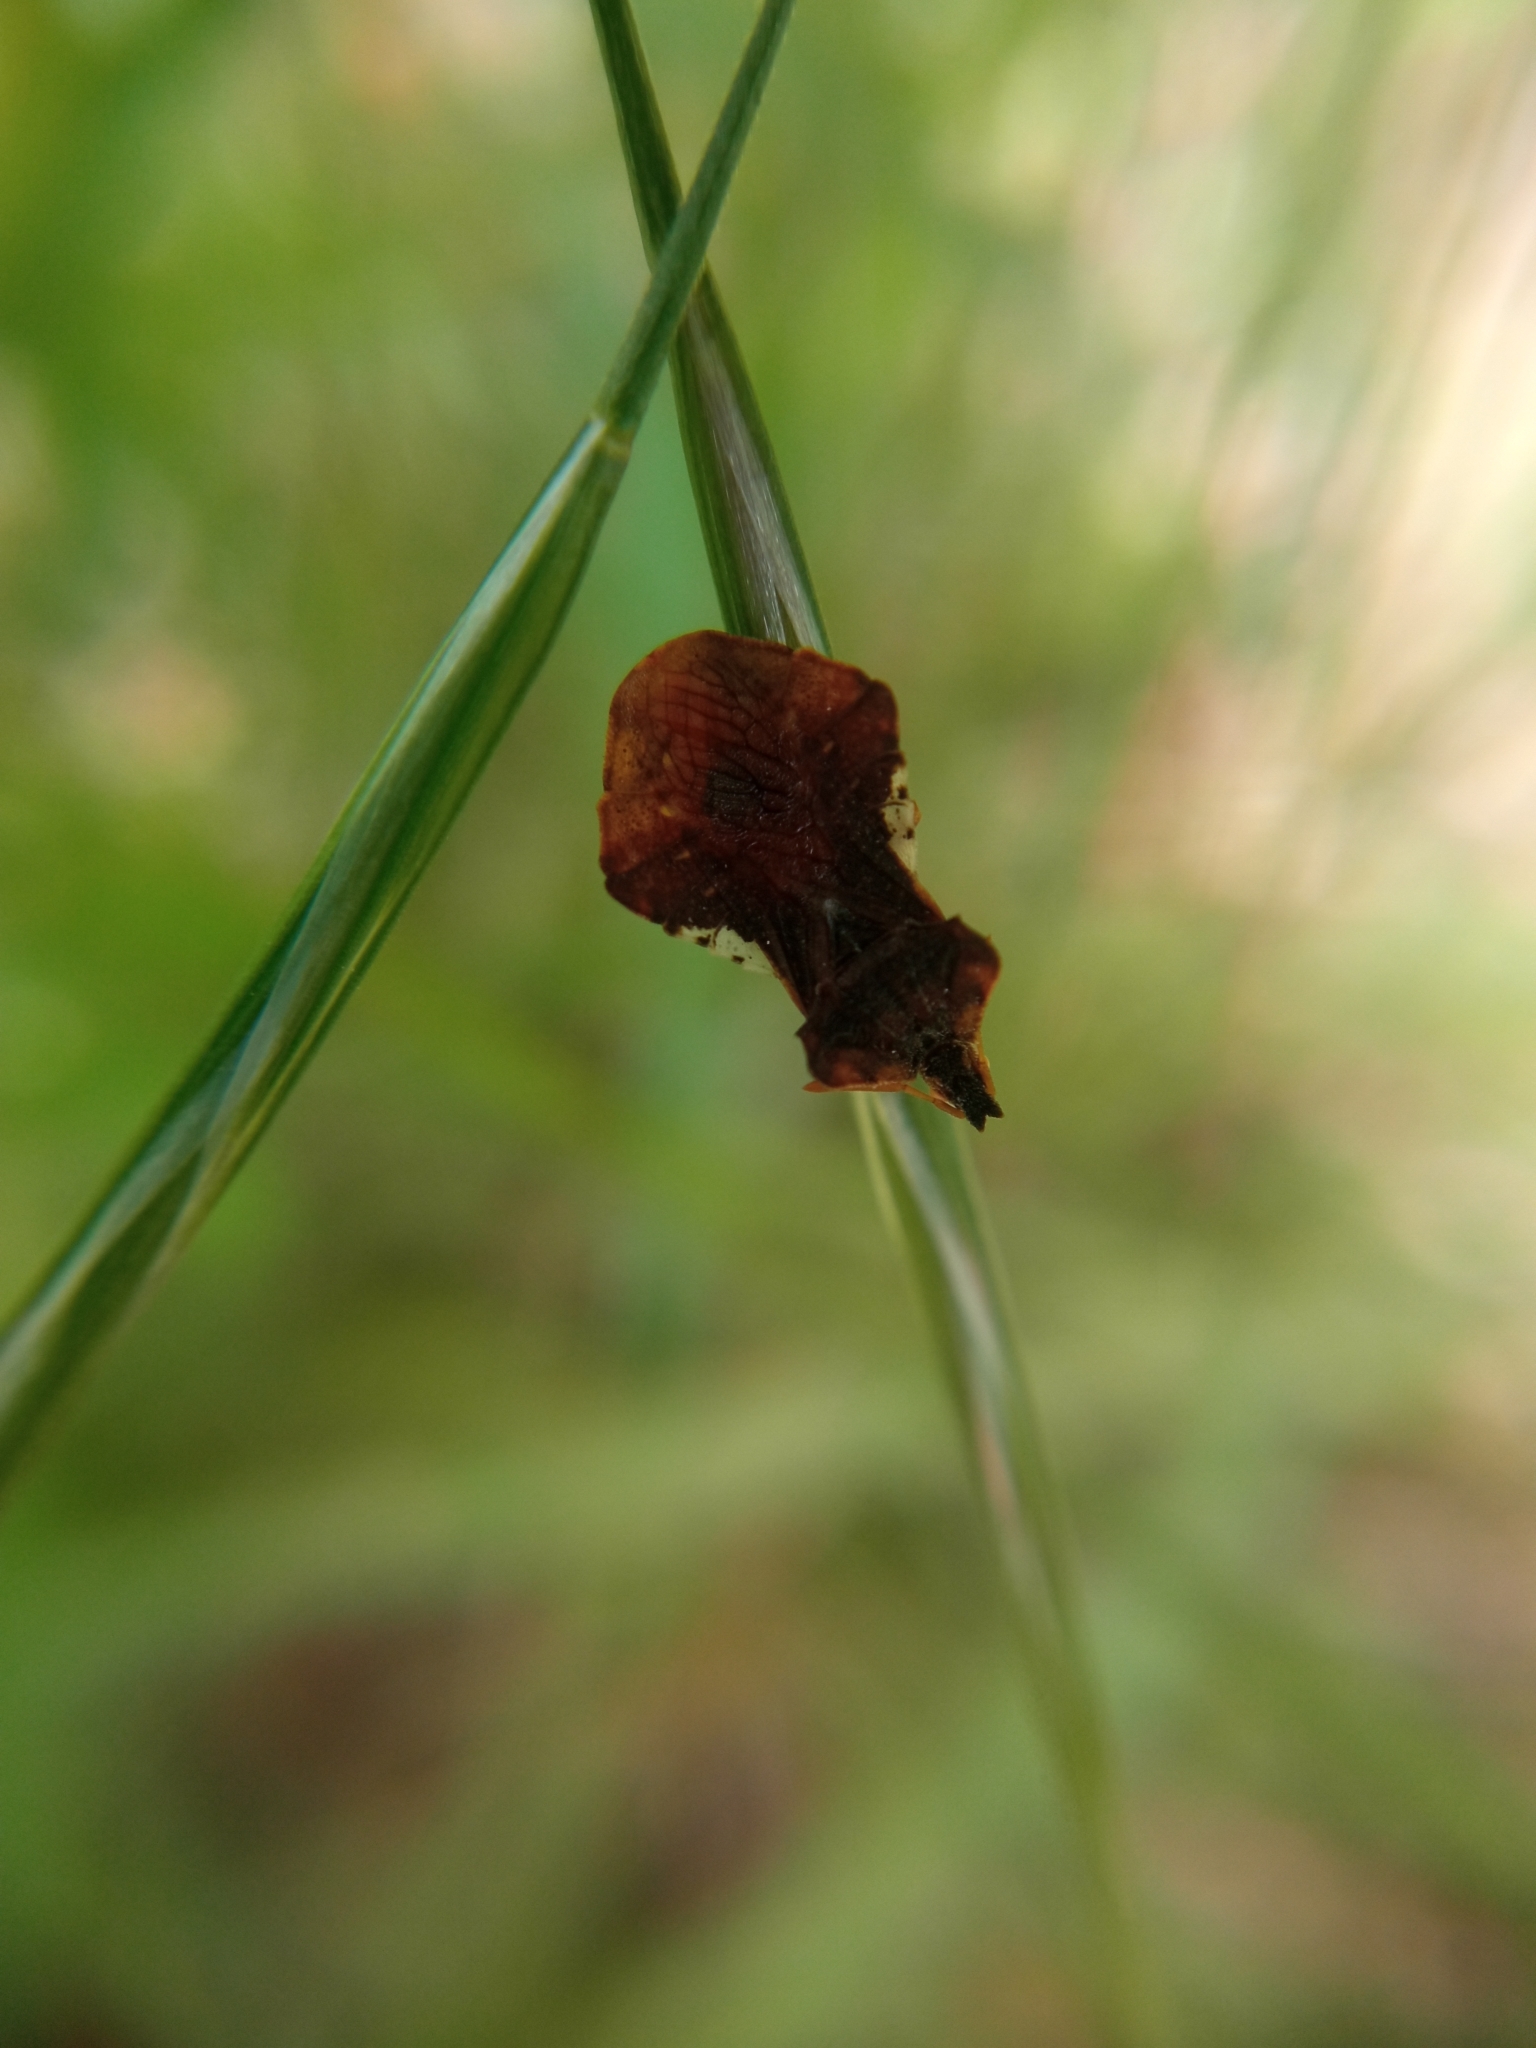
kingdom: Animalia
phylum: Arthropoda
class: Insecta
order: Hemiptera
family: Reduviidae
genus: Phymata
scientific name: Phymata crassipes
